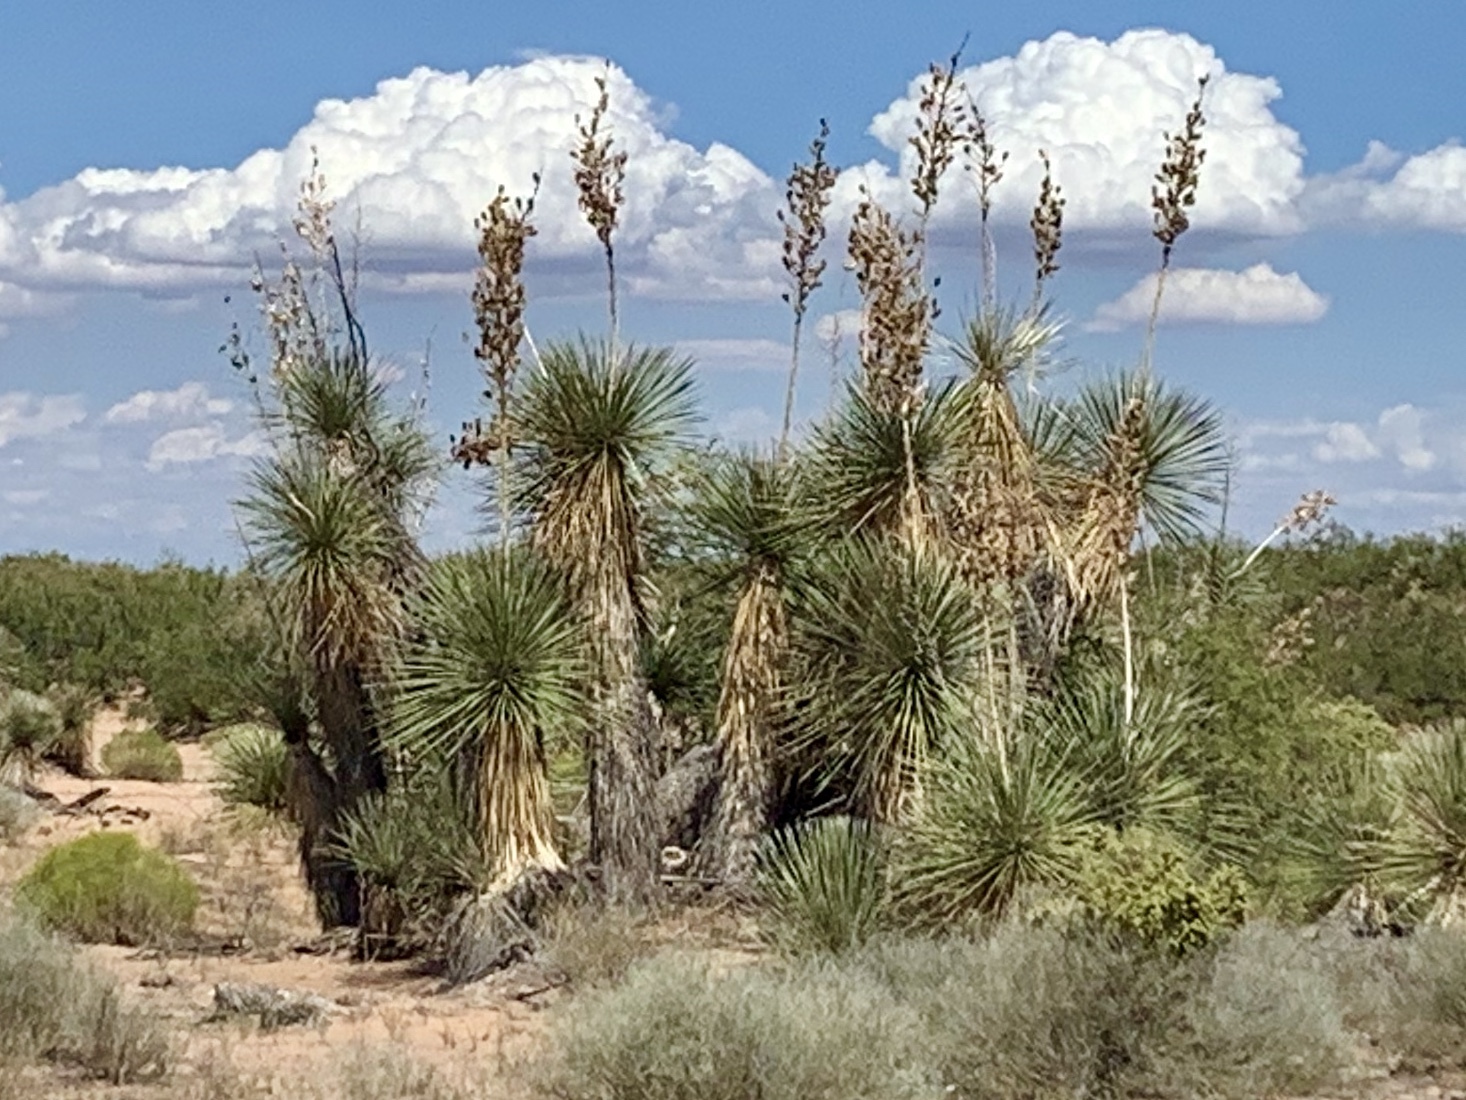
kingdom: Plantae
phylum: Tracheophyta
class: Liliopsida
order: Asparagales
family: Asparagaceae
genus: Yucca
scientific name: Yucca elata
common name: Palmella
